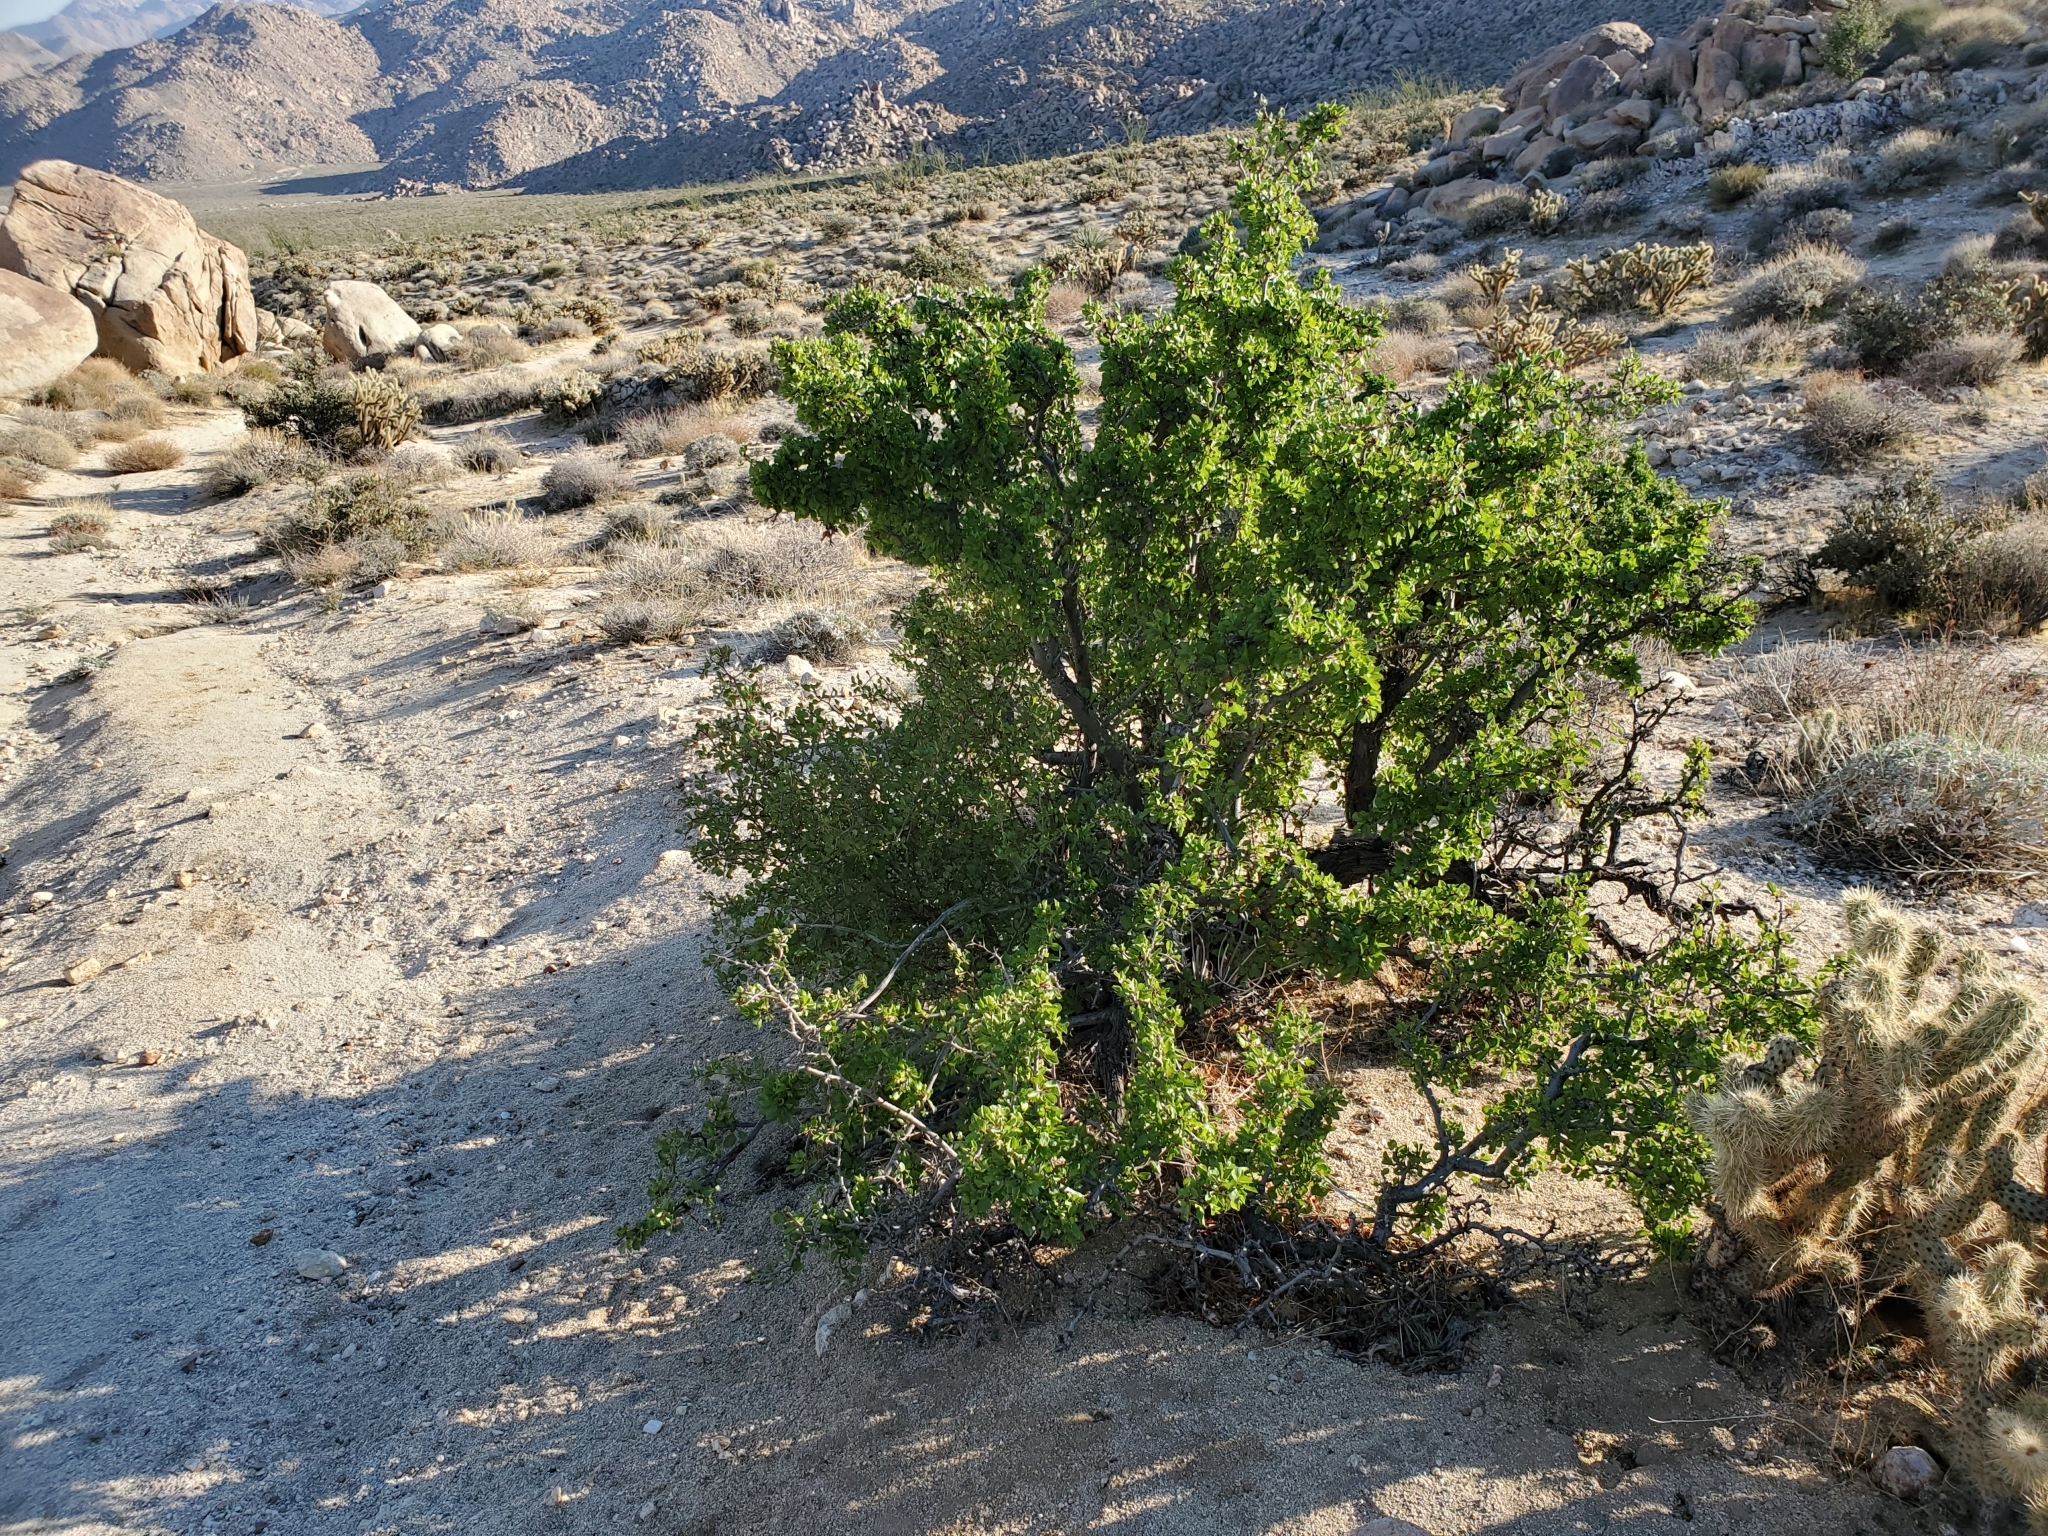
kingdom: Plantae
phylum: Tracheophyta
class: Magnoliopsida
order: Rosales
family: Rosaceae
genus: Prunus
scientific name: Prunus fremontii
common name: Desert apricot
